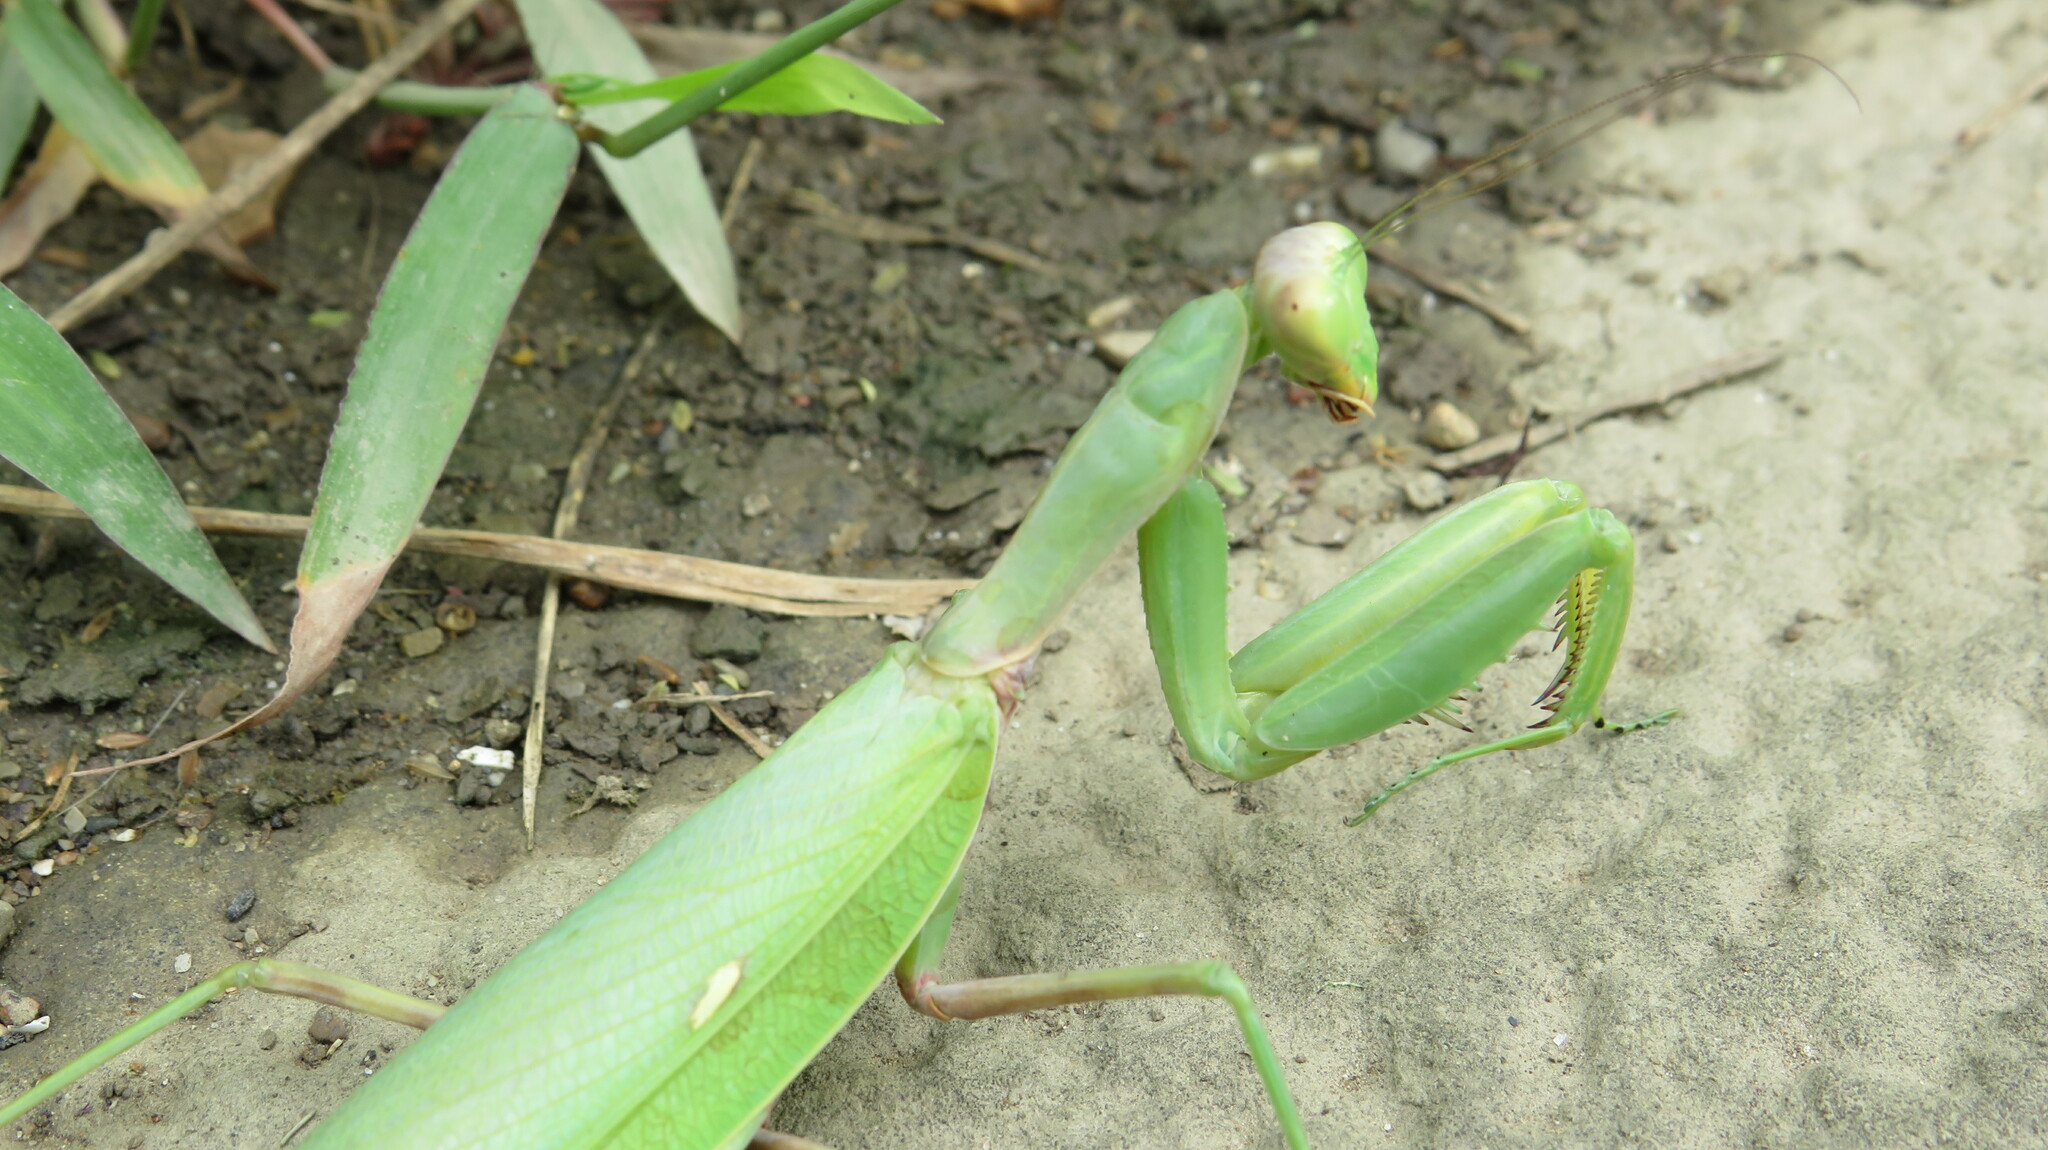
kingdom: Animalia
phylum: Arthropoda
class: Insecta
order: Mantodea
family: Mantidae
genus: Hierodula
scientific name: Hierodula transcaucasica
